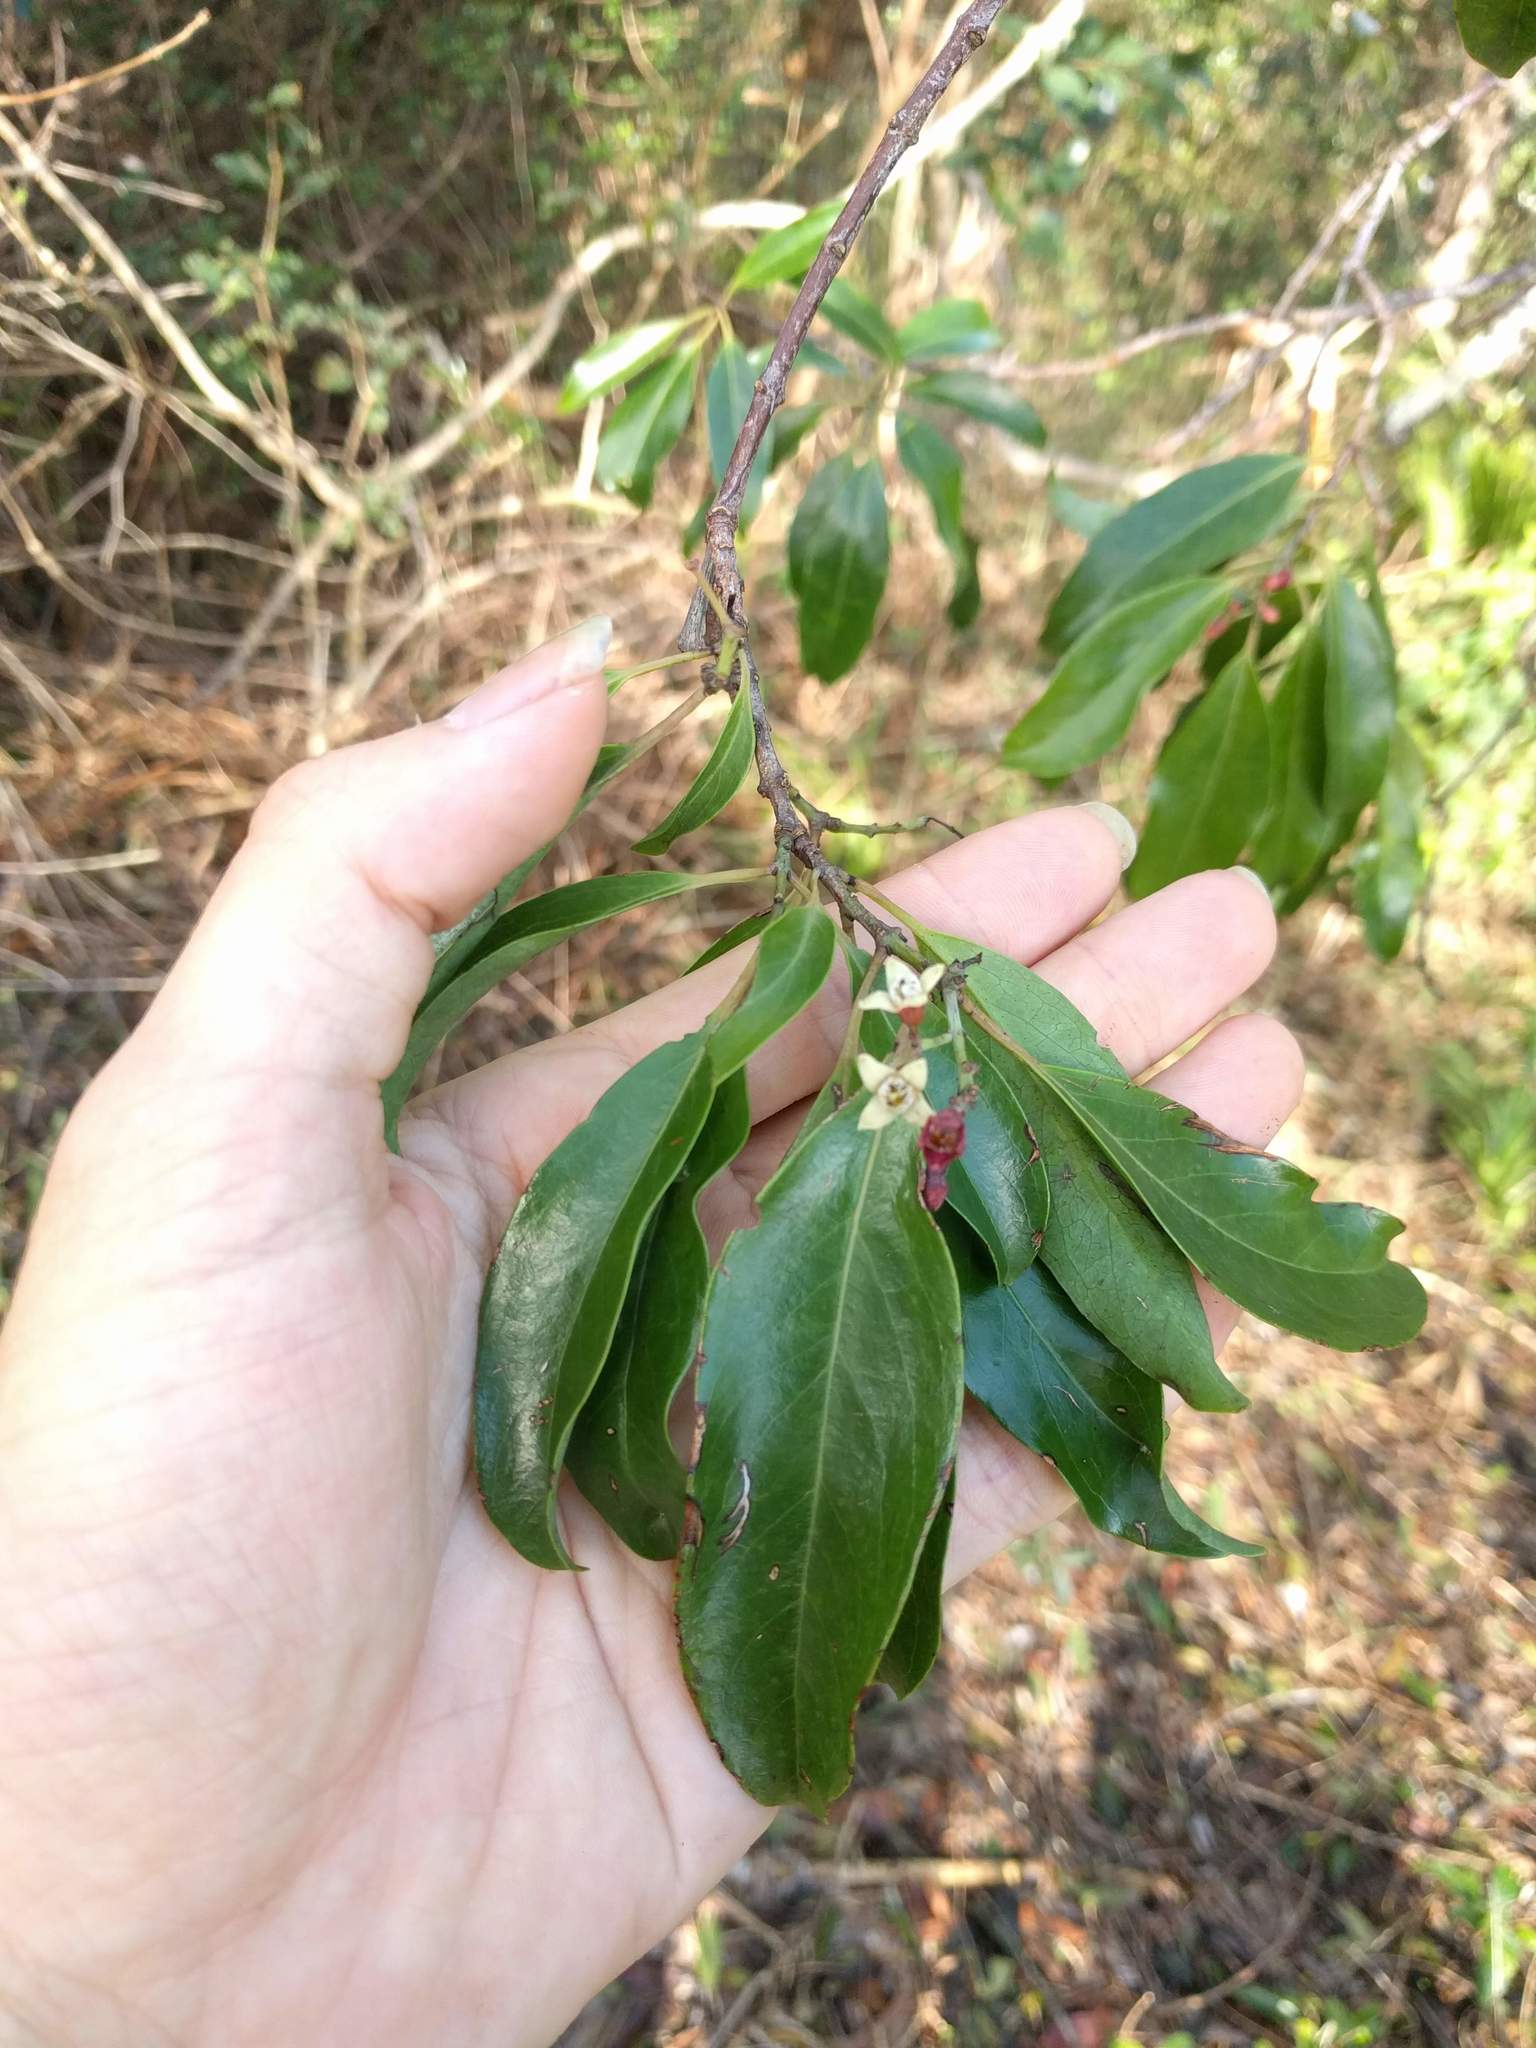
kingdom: Plantae
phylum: Tracheophyta
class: Magnoliopsida
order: Santalales
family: Santalaceae
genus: Santalum
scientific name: Santalum freycinetianum
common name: Lanai sandalwood
